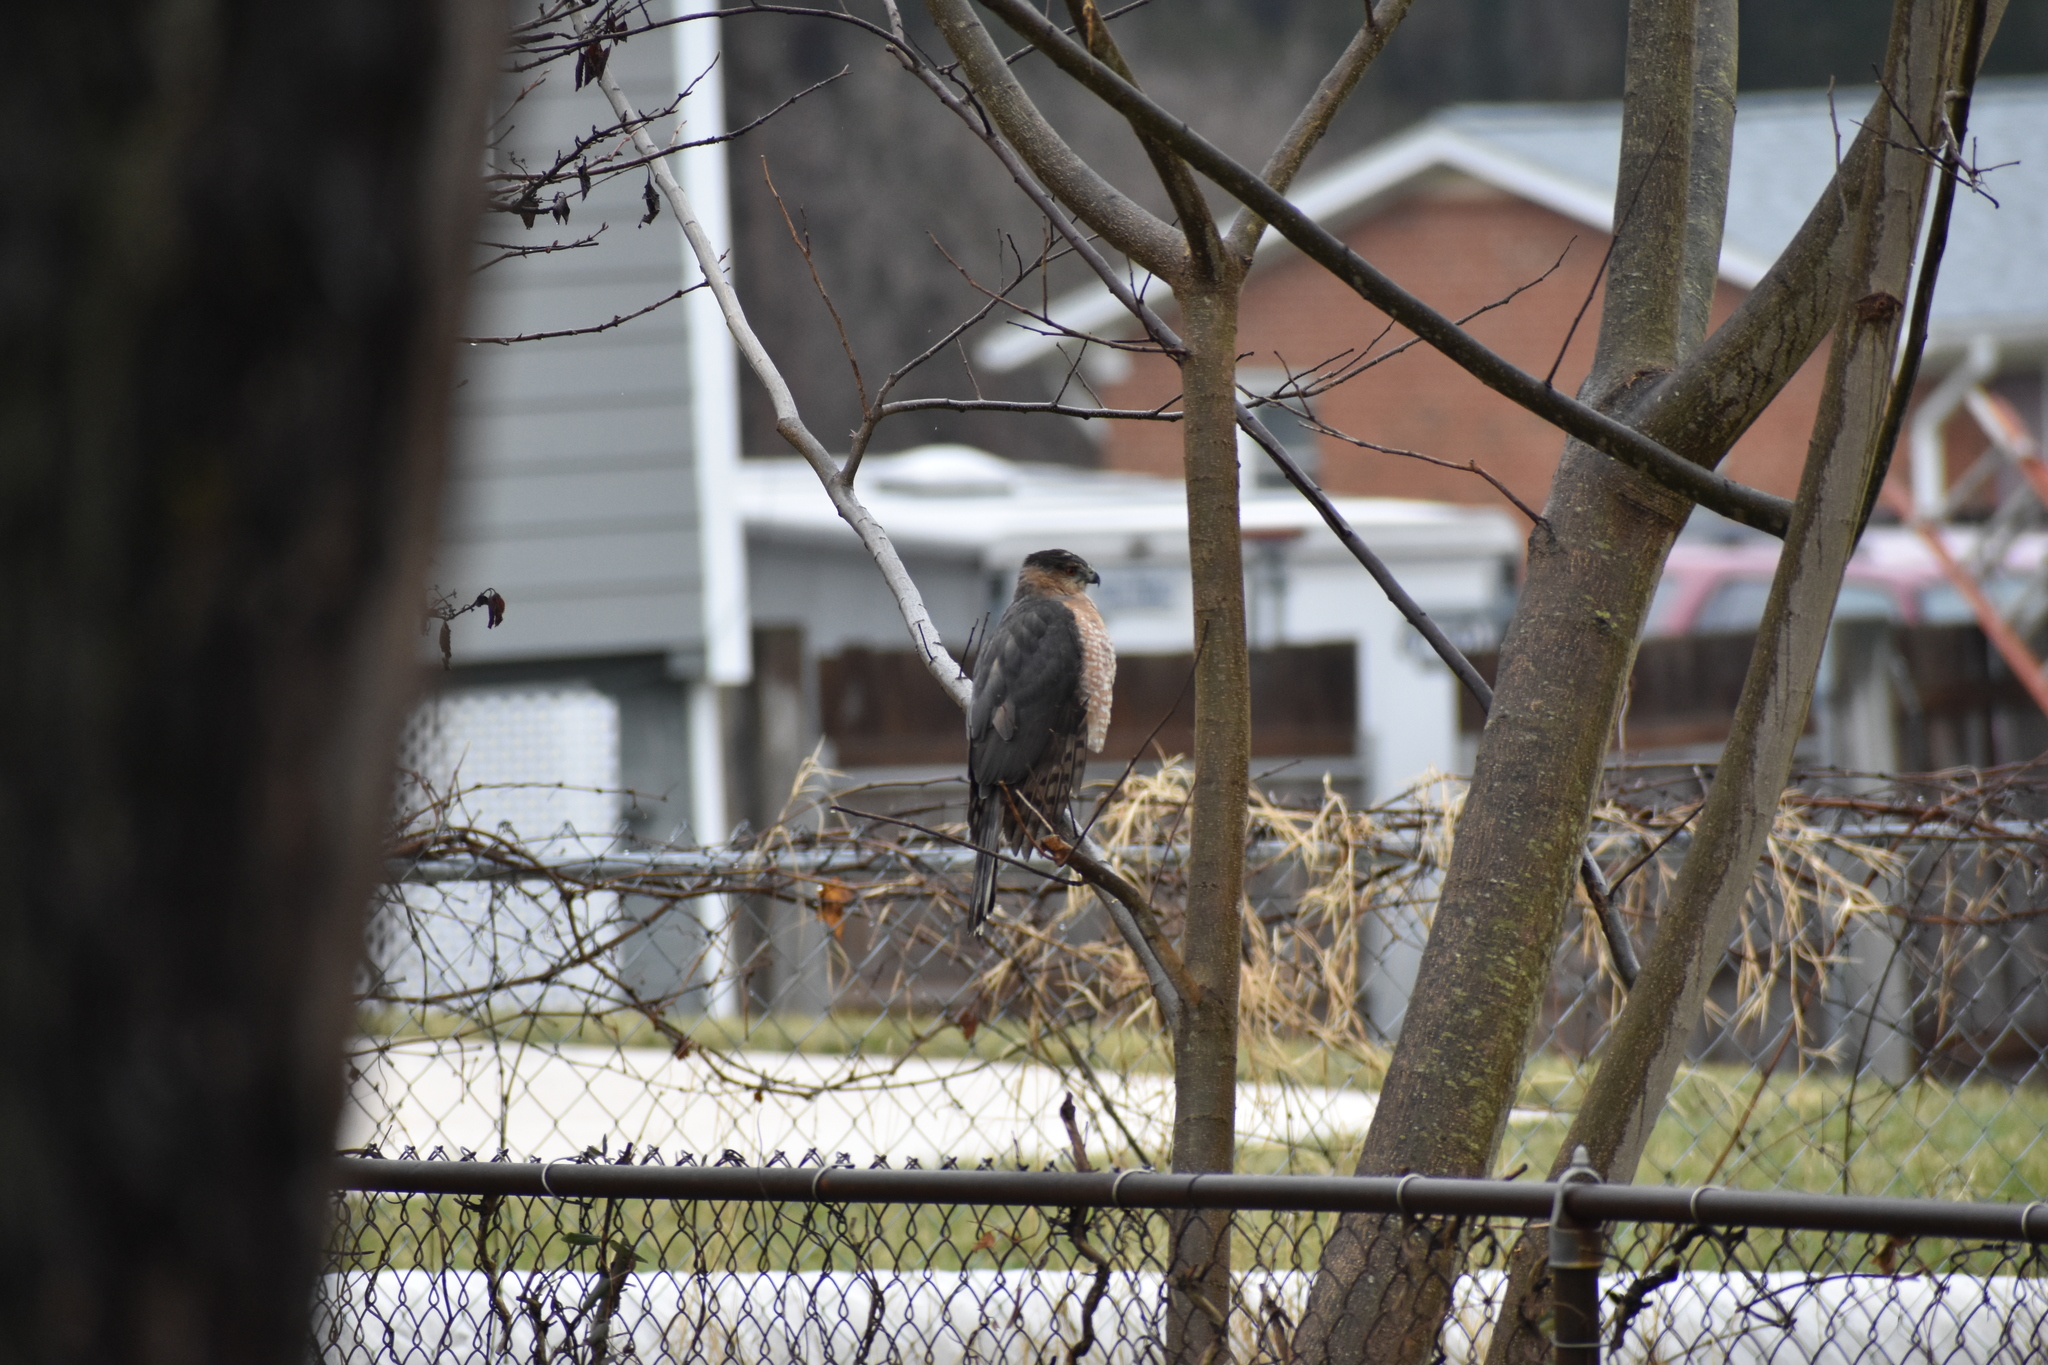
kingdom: Animalia
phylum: Chordata
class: Aves
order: Accipitriformes
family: Accipitridae
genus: Accipiter
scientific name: Accipiter cooperii
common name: Cooper's hawk
